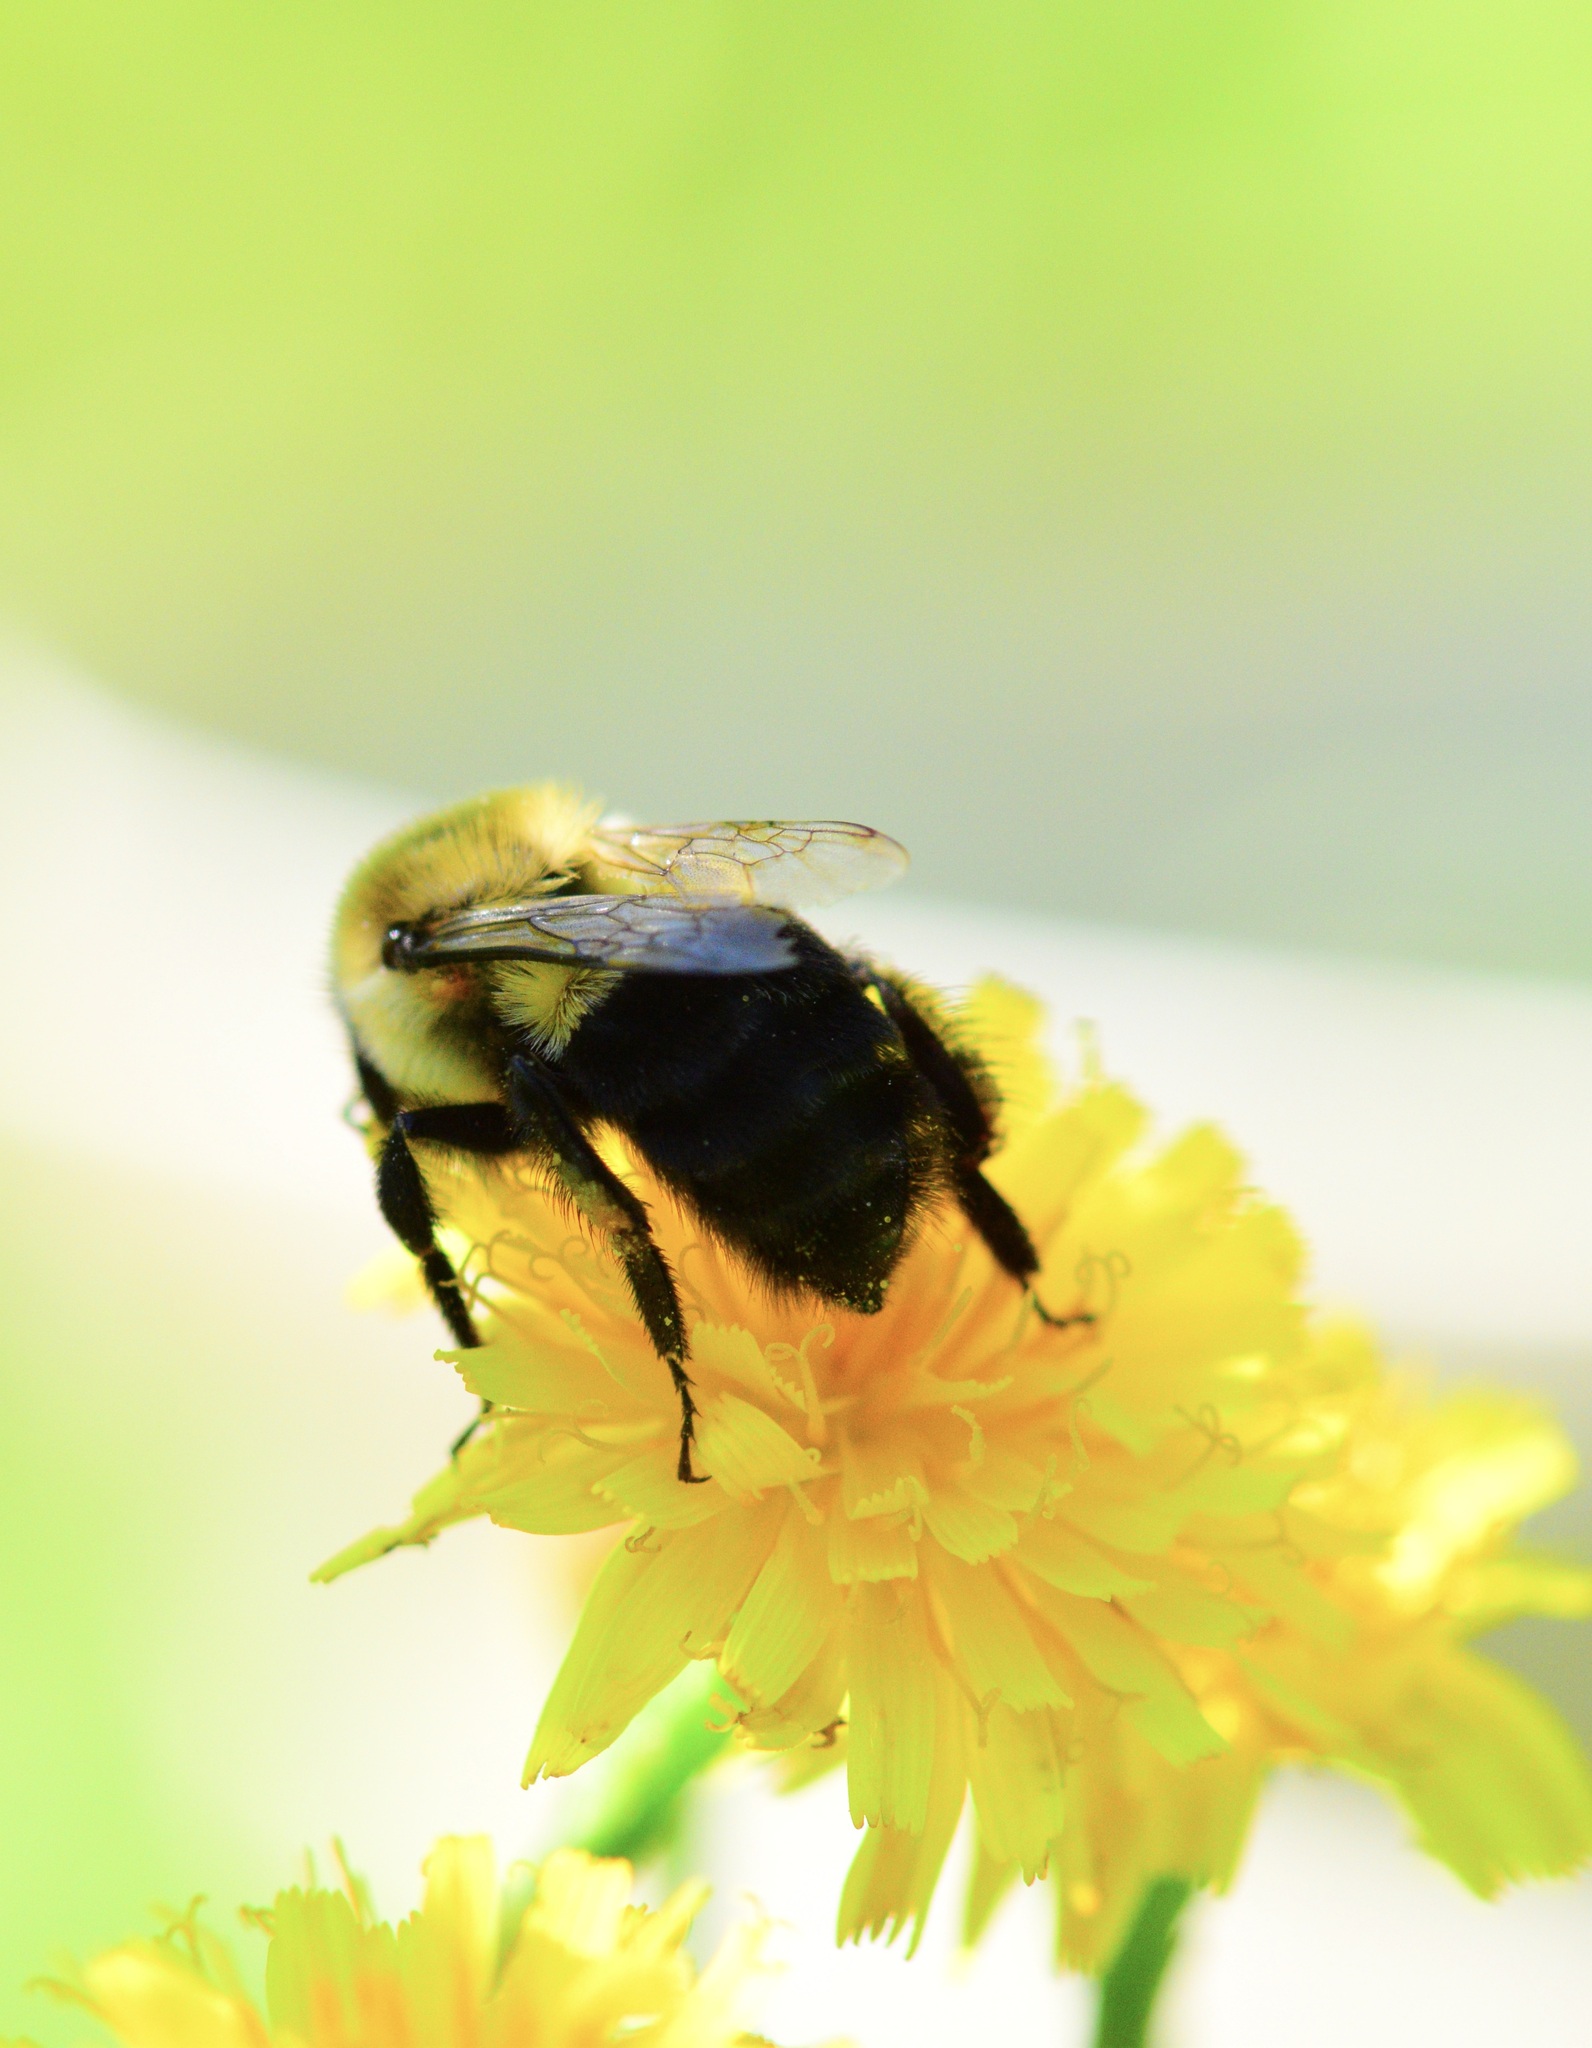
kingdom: Animalia
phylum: Arthropoda
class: Insecta
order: Hymenoptera
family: Apidae
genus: Bombus
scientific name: Bombus impatiens
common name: Common eastern bumble bee
